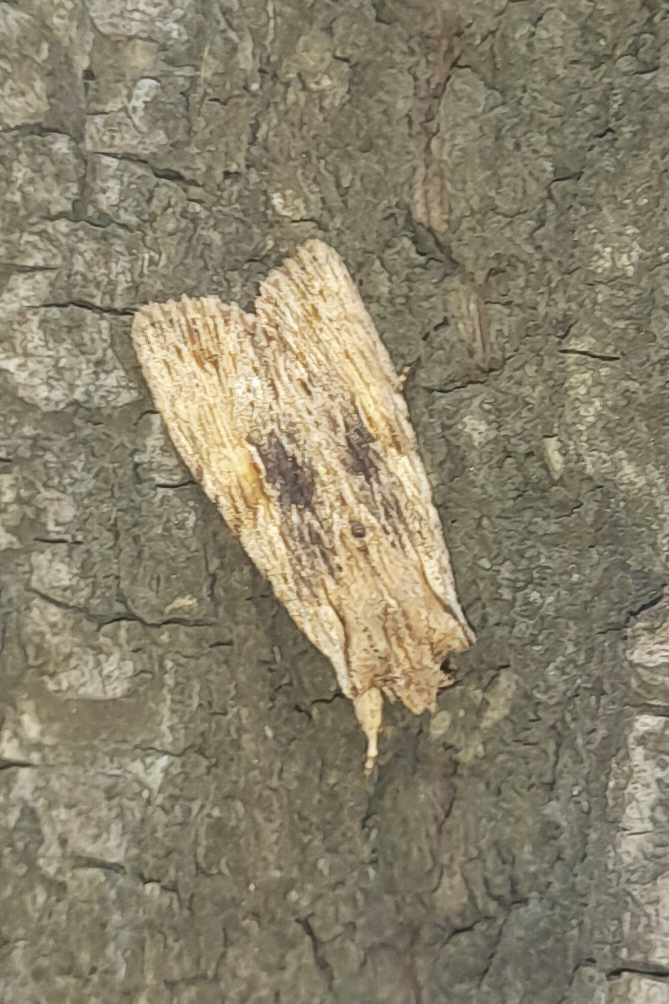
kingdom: Animalia
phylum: Arthropoda
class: Insecta
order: Lepidoptera
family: Noctuidae
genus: Lithophane
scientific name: Lithophane socia
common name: Pale pinion
